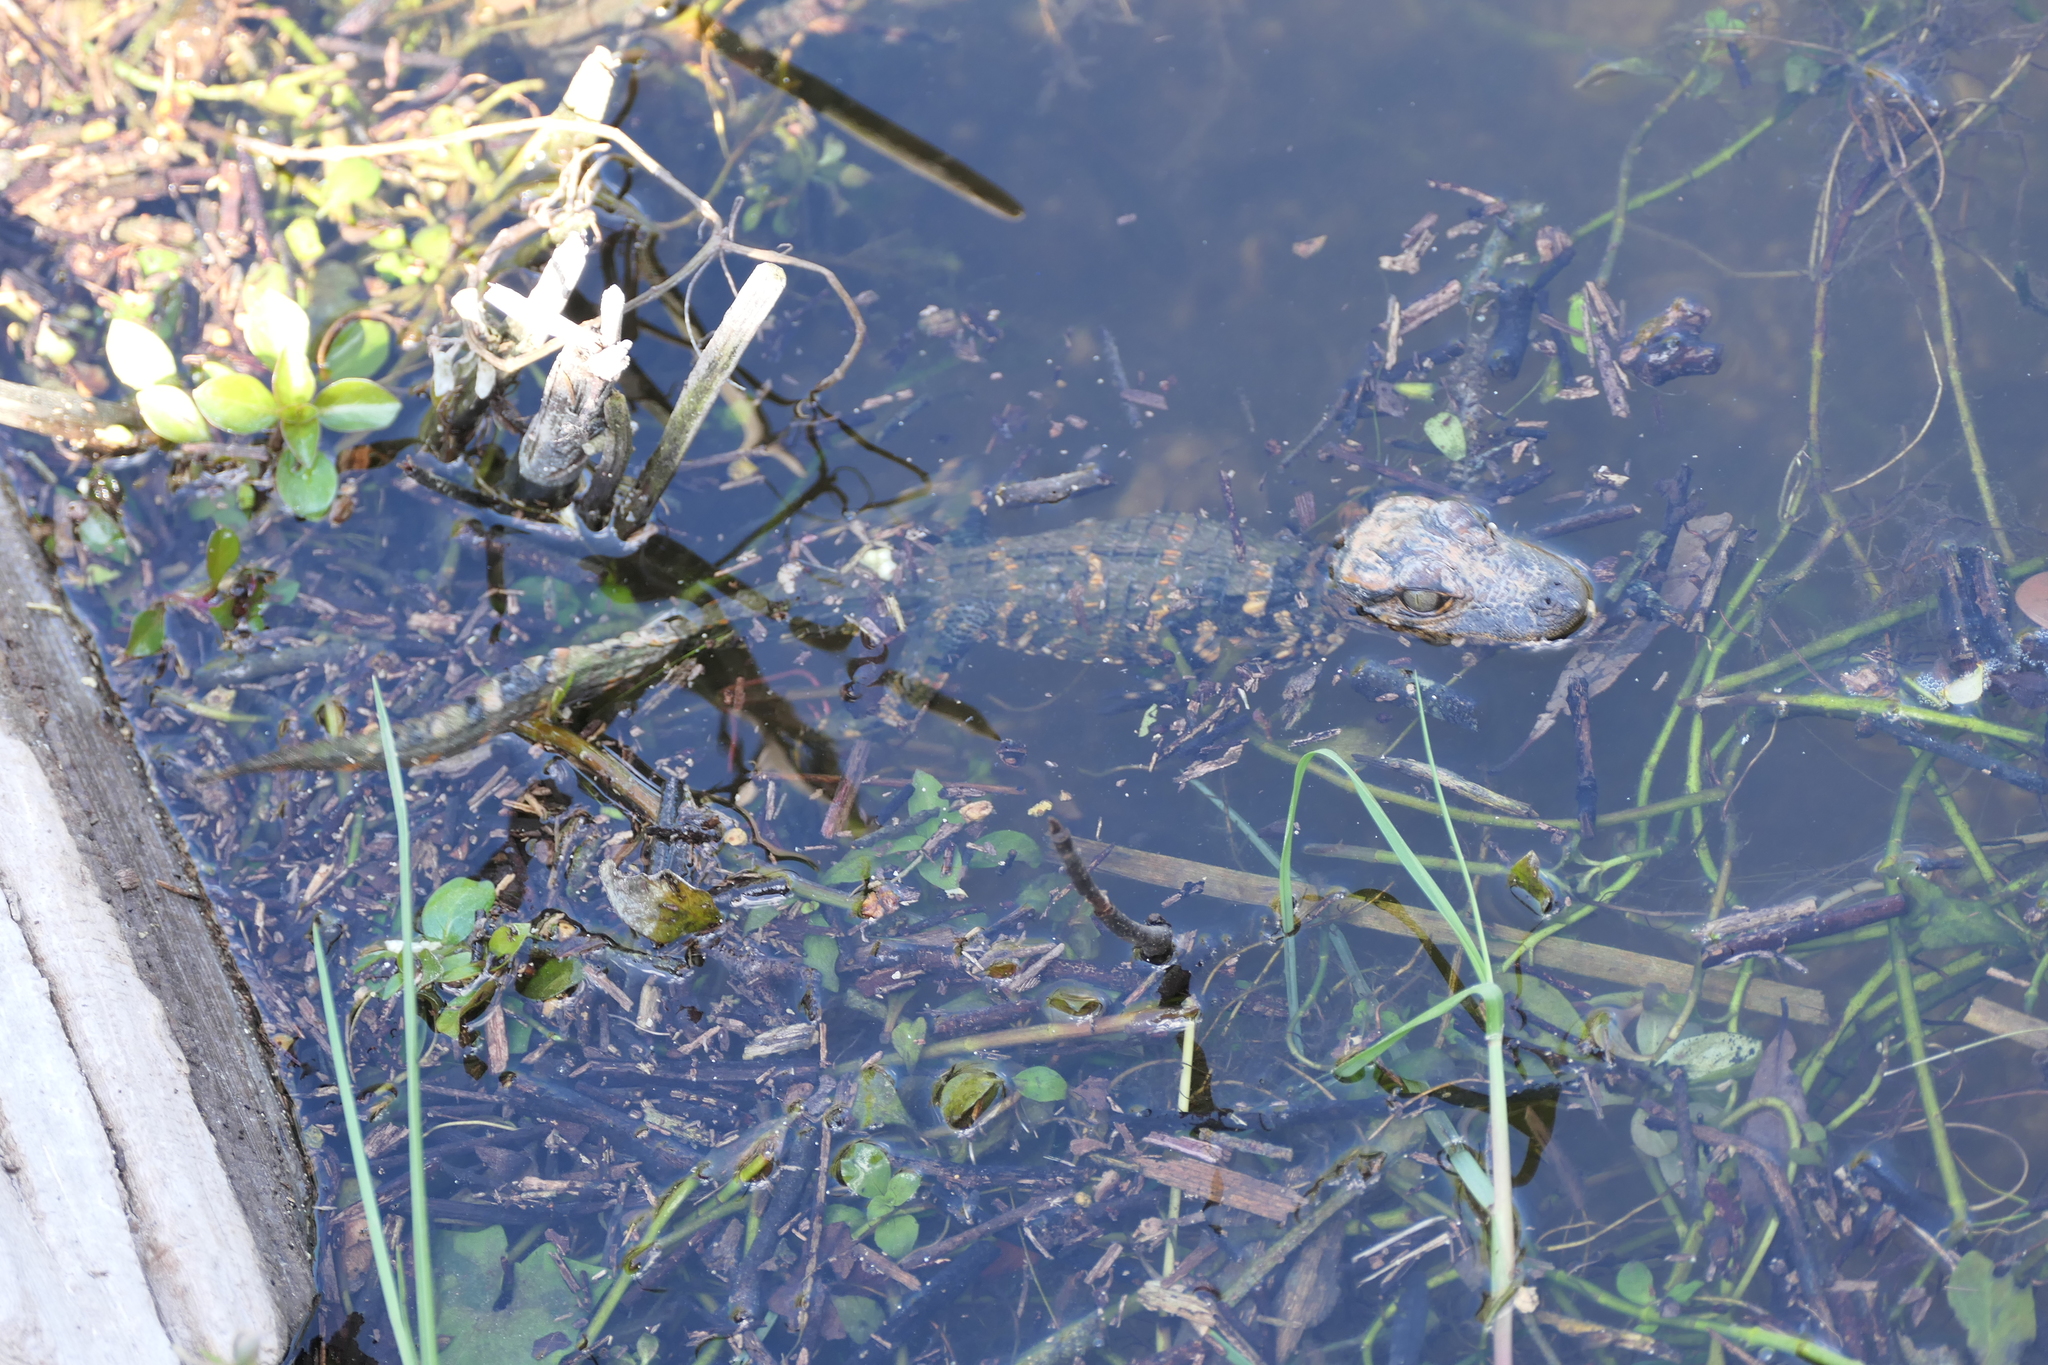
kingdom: Animalia
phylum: Chordata
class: Crocodylia
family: Alligatoridae
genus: Alligator
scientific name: Alligator mississippiensis
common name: American alligator
